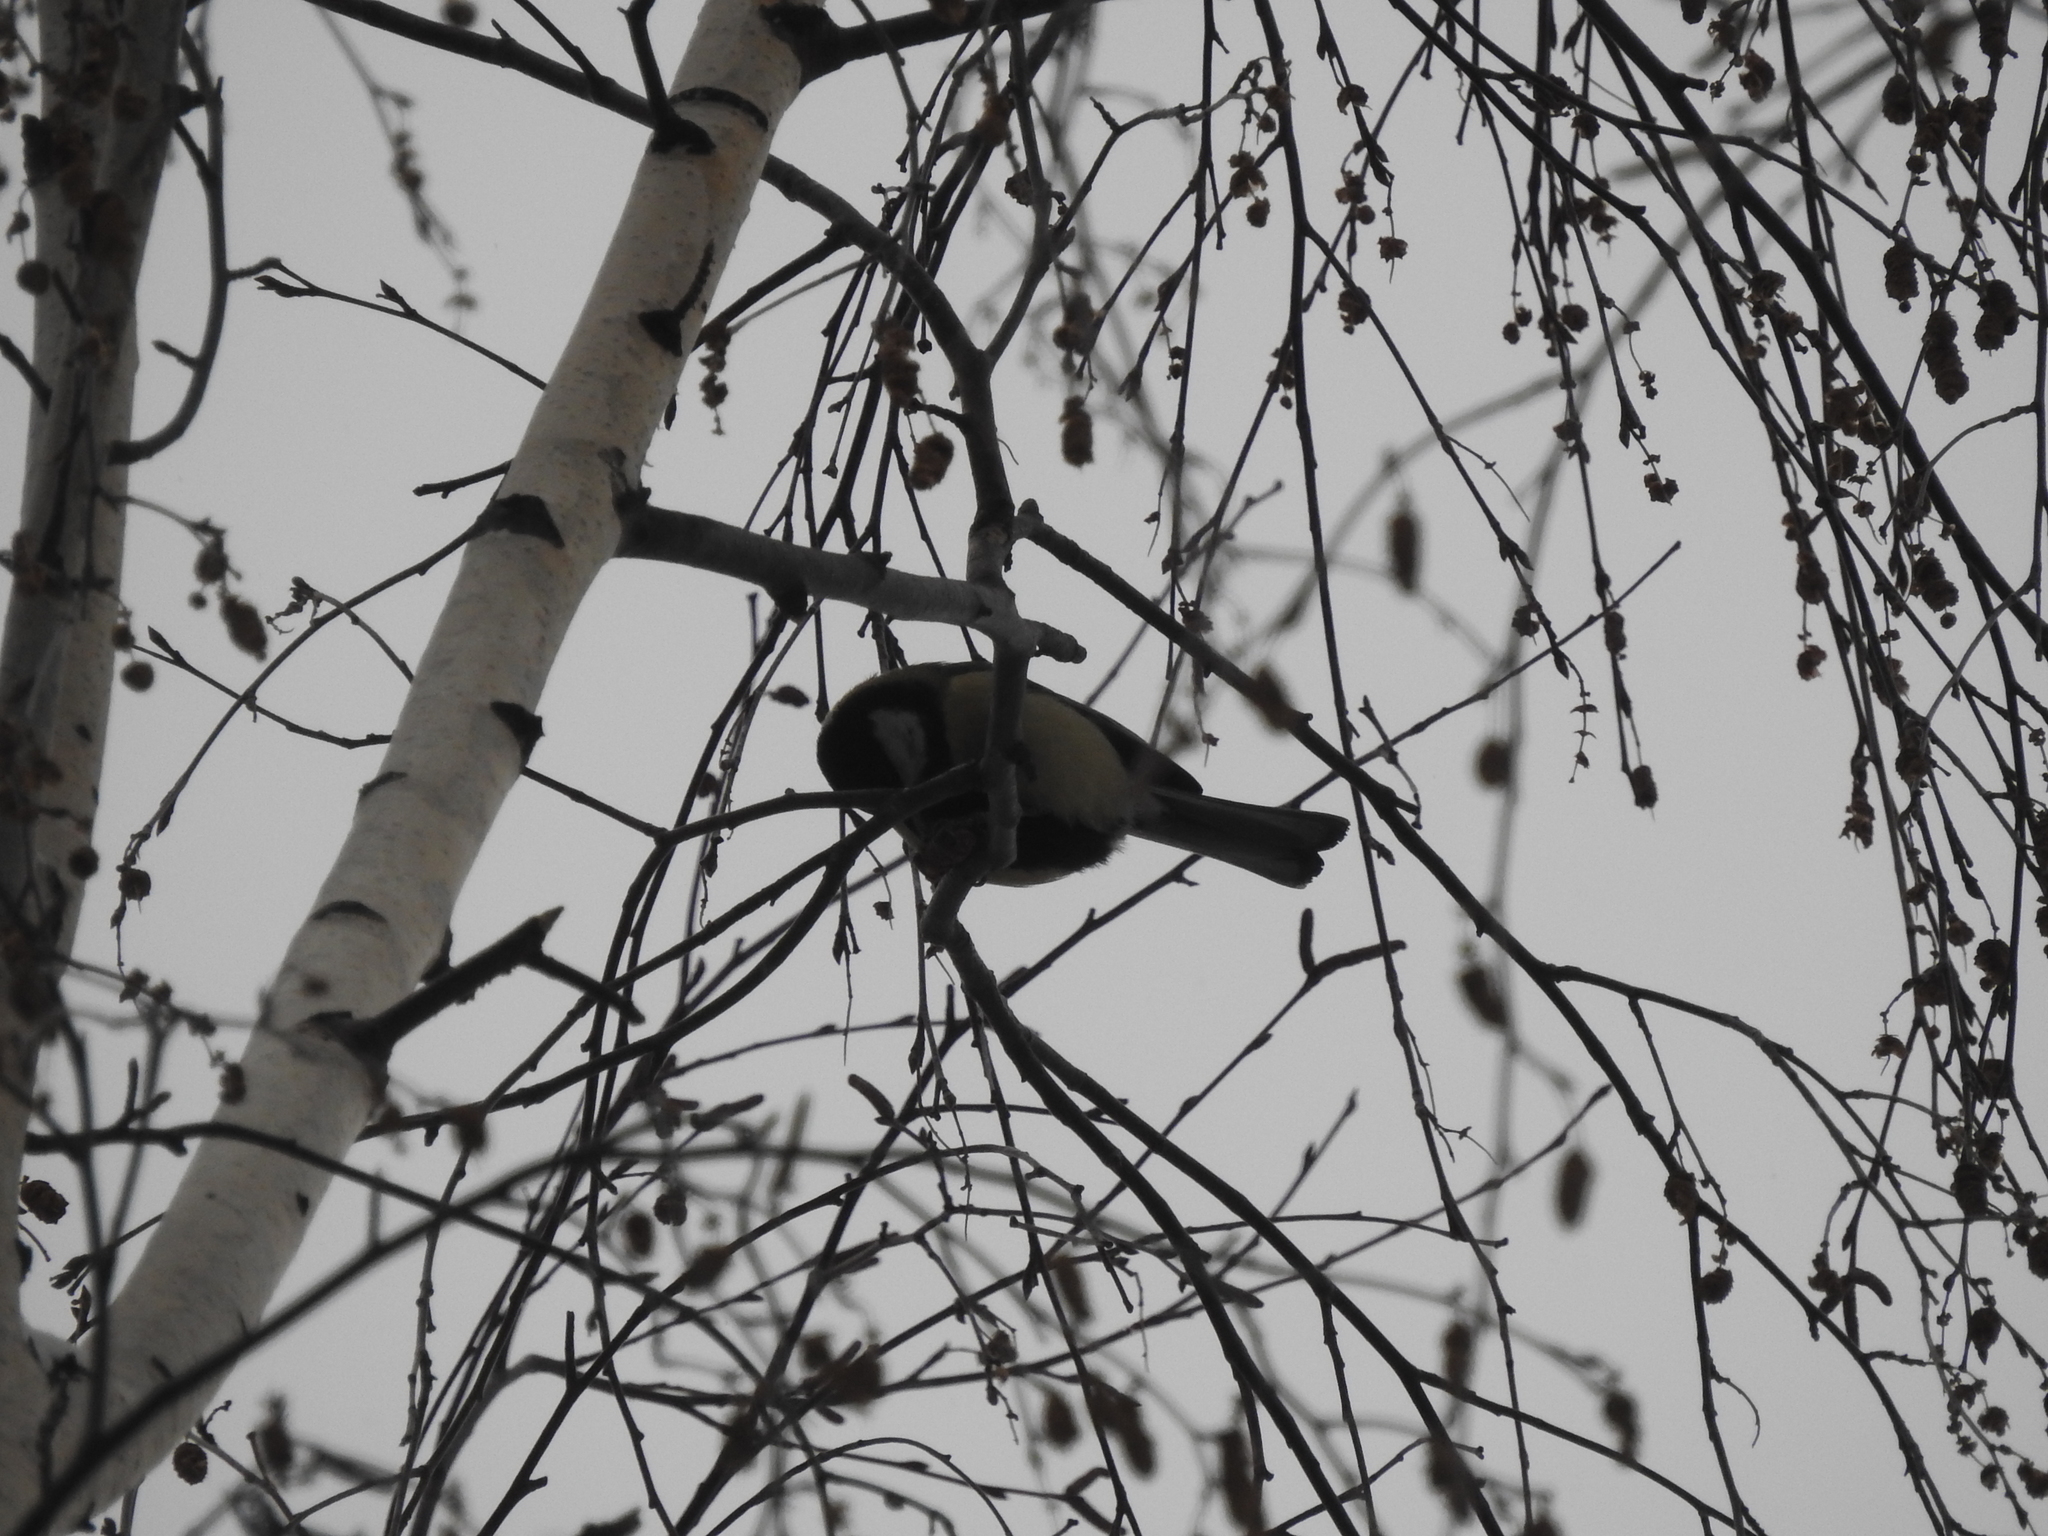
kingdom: Animalia
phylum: Chordata
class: Aves
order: Passeriformes
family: Paridae
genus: Parus
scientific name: Parus major
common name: Great tit
